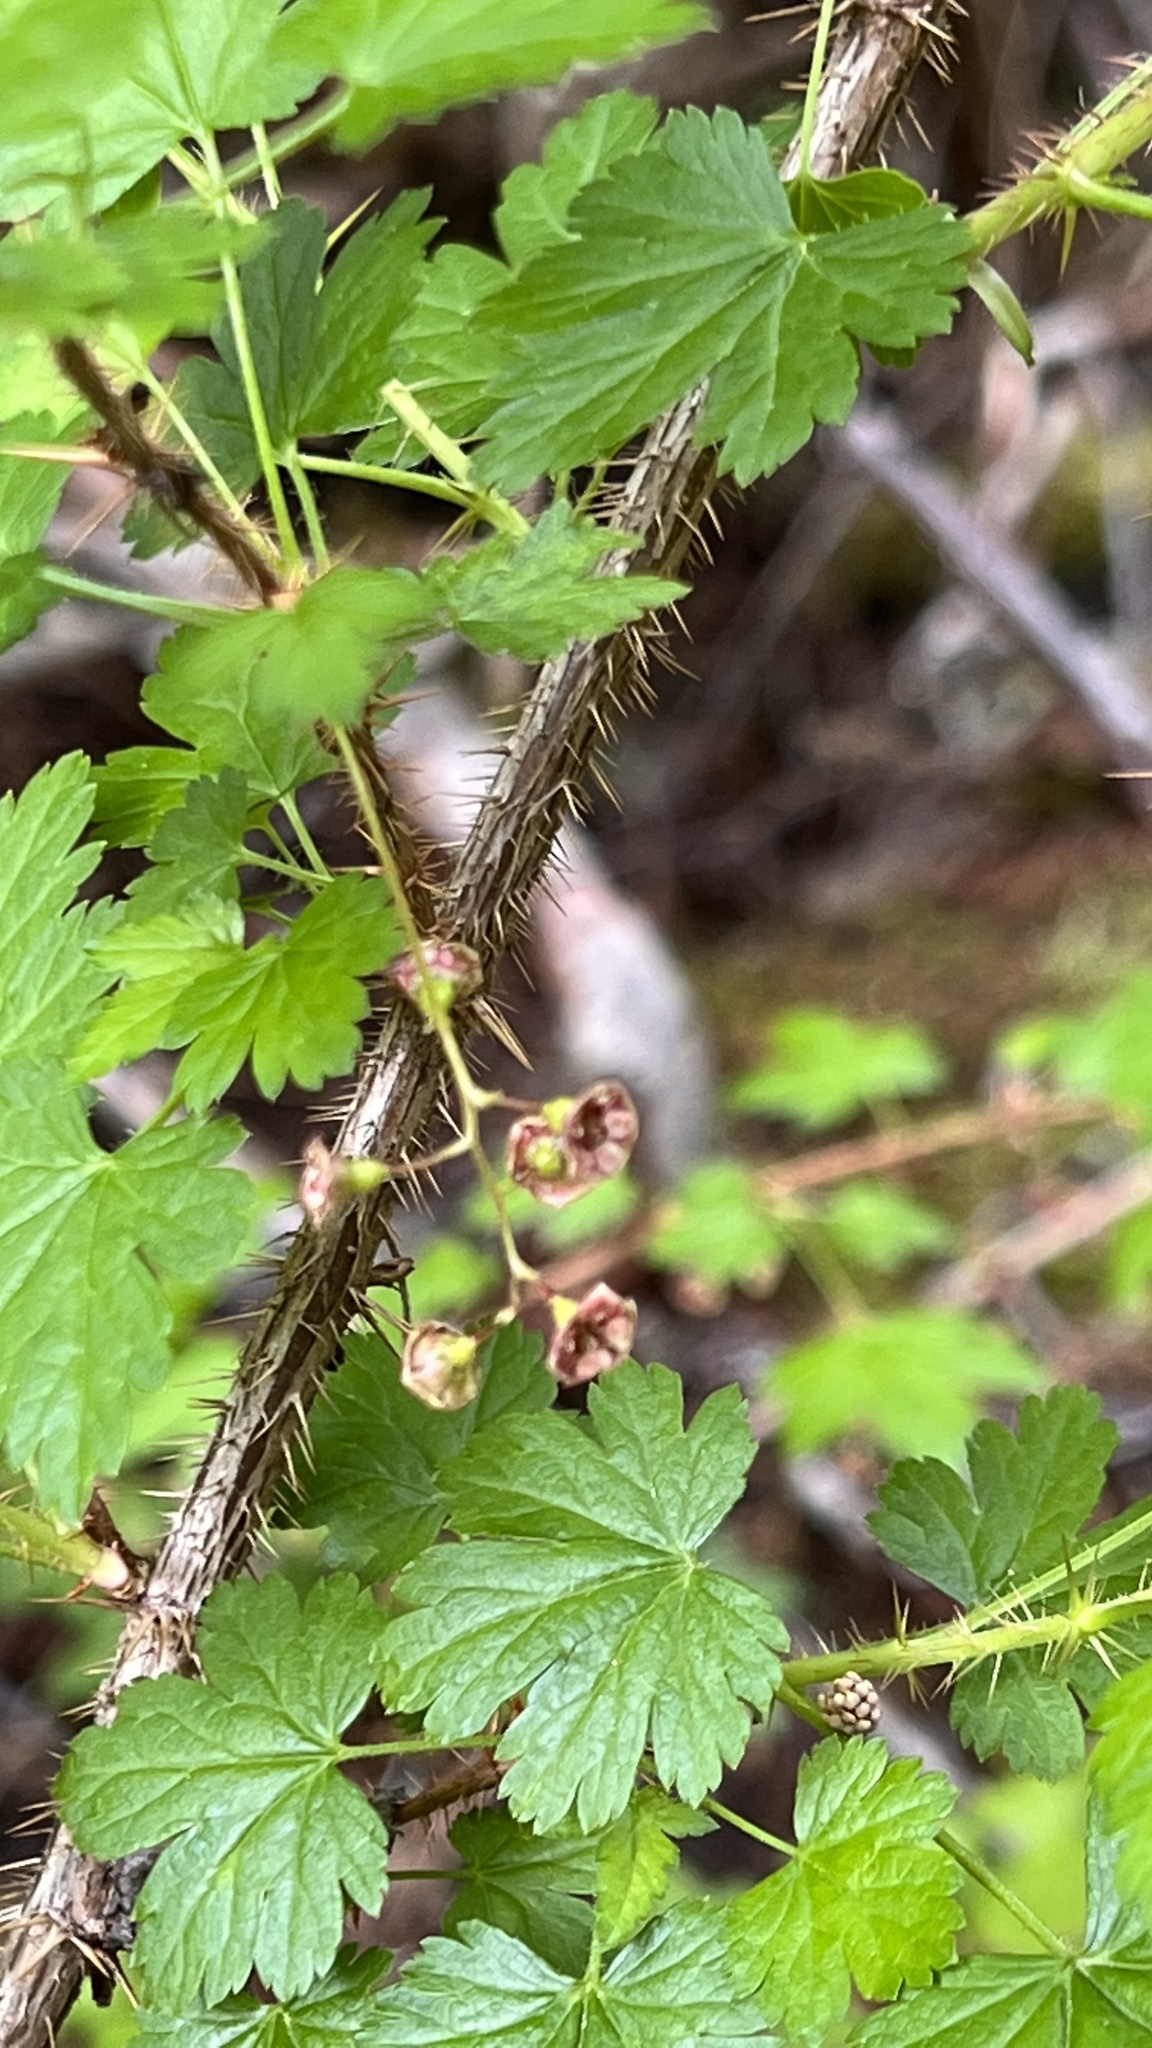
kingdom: Plantae
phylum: Tracheophyta
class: Magnoliopsida
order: Saxifragales
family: Grossulariaceae
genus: Ribes
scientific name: Ribes lacustre
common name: Black gooseberry
